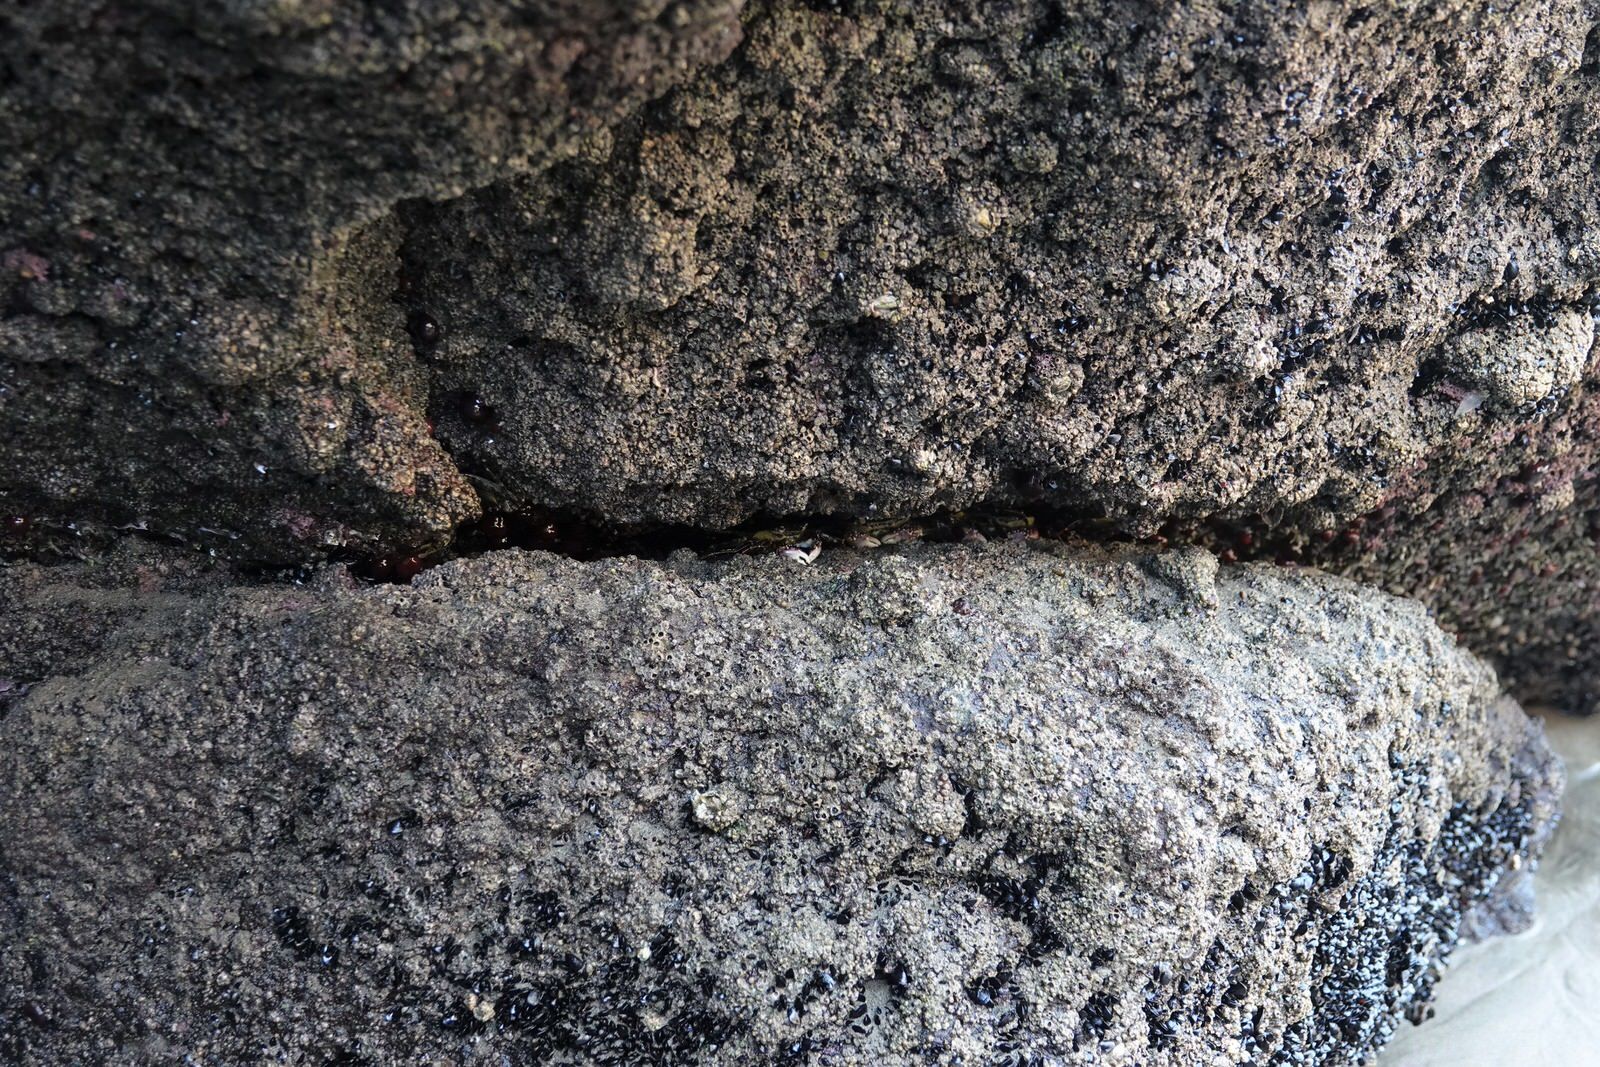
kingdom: Animalia
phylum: Arthropoda
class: Malacostraca
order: Decapoda
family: Grapsidae
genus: Leptograpsus
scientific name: Leptograpsus variegatus
